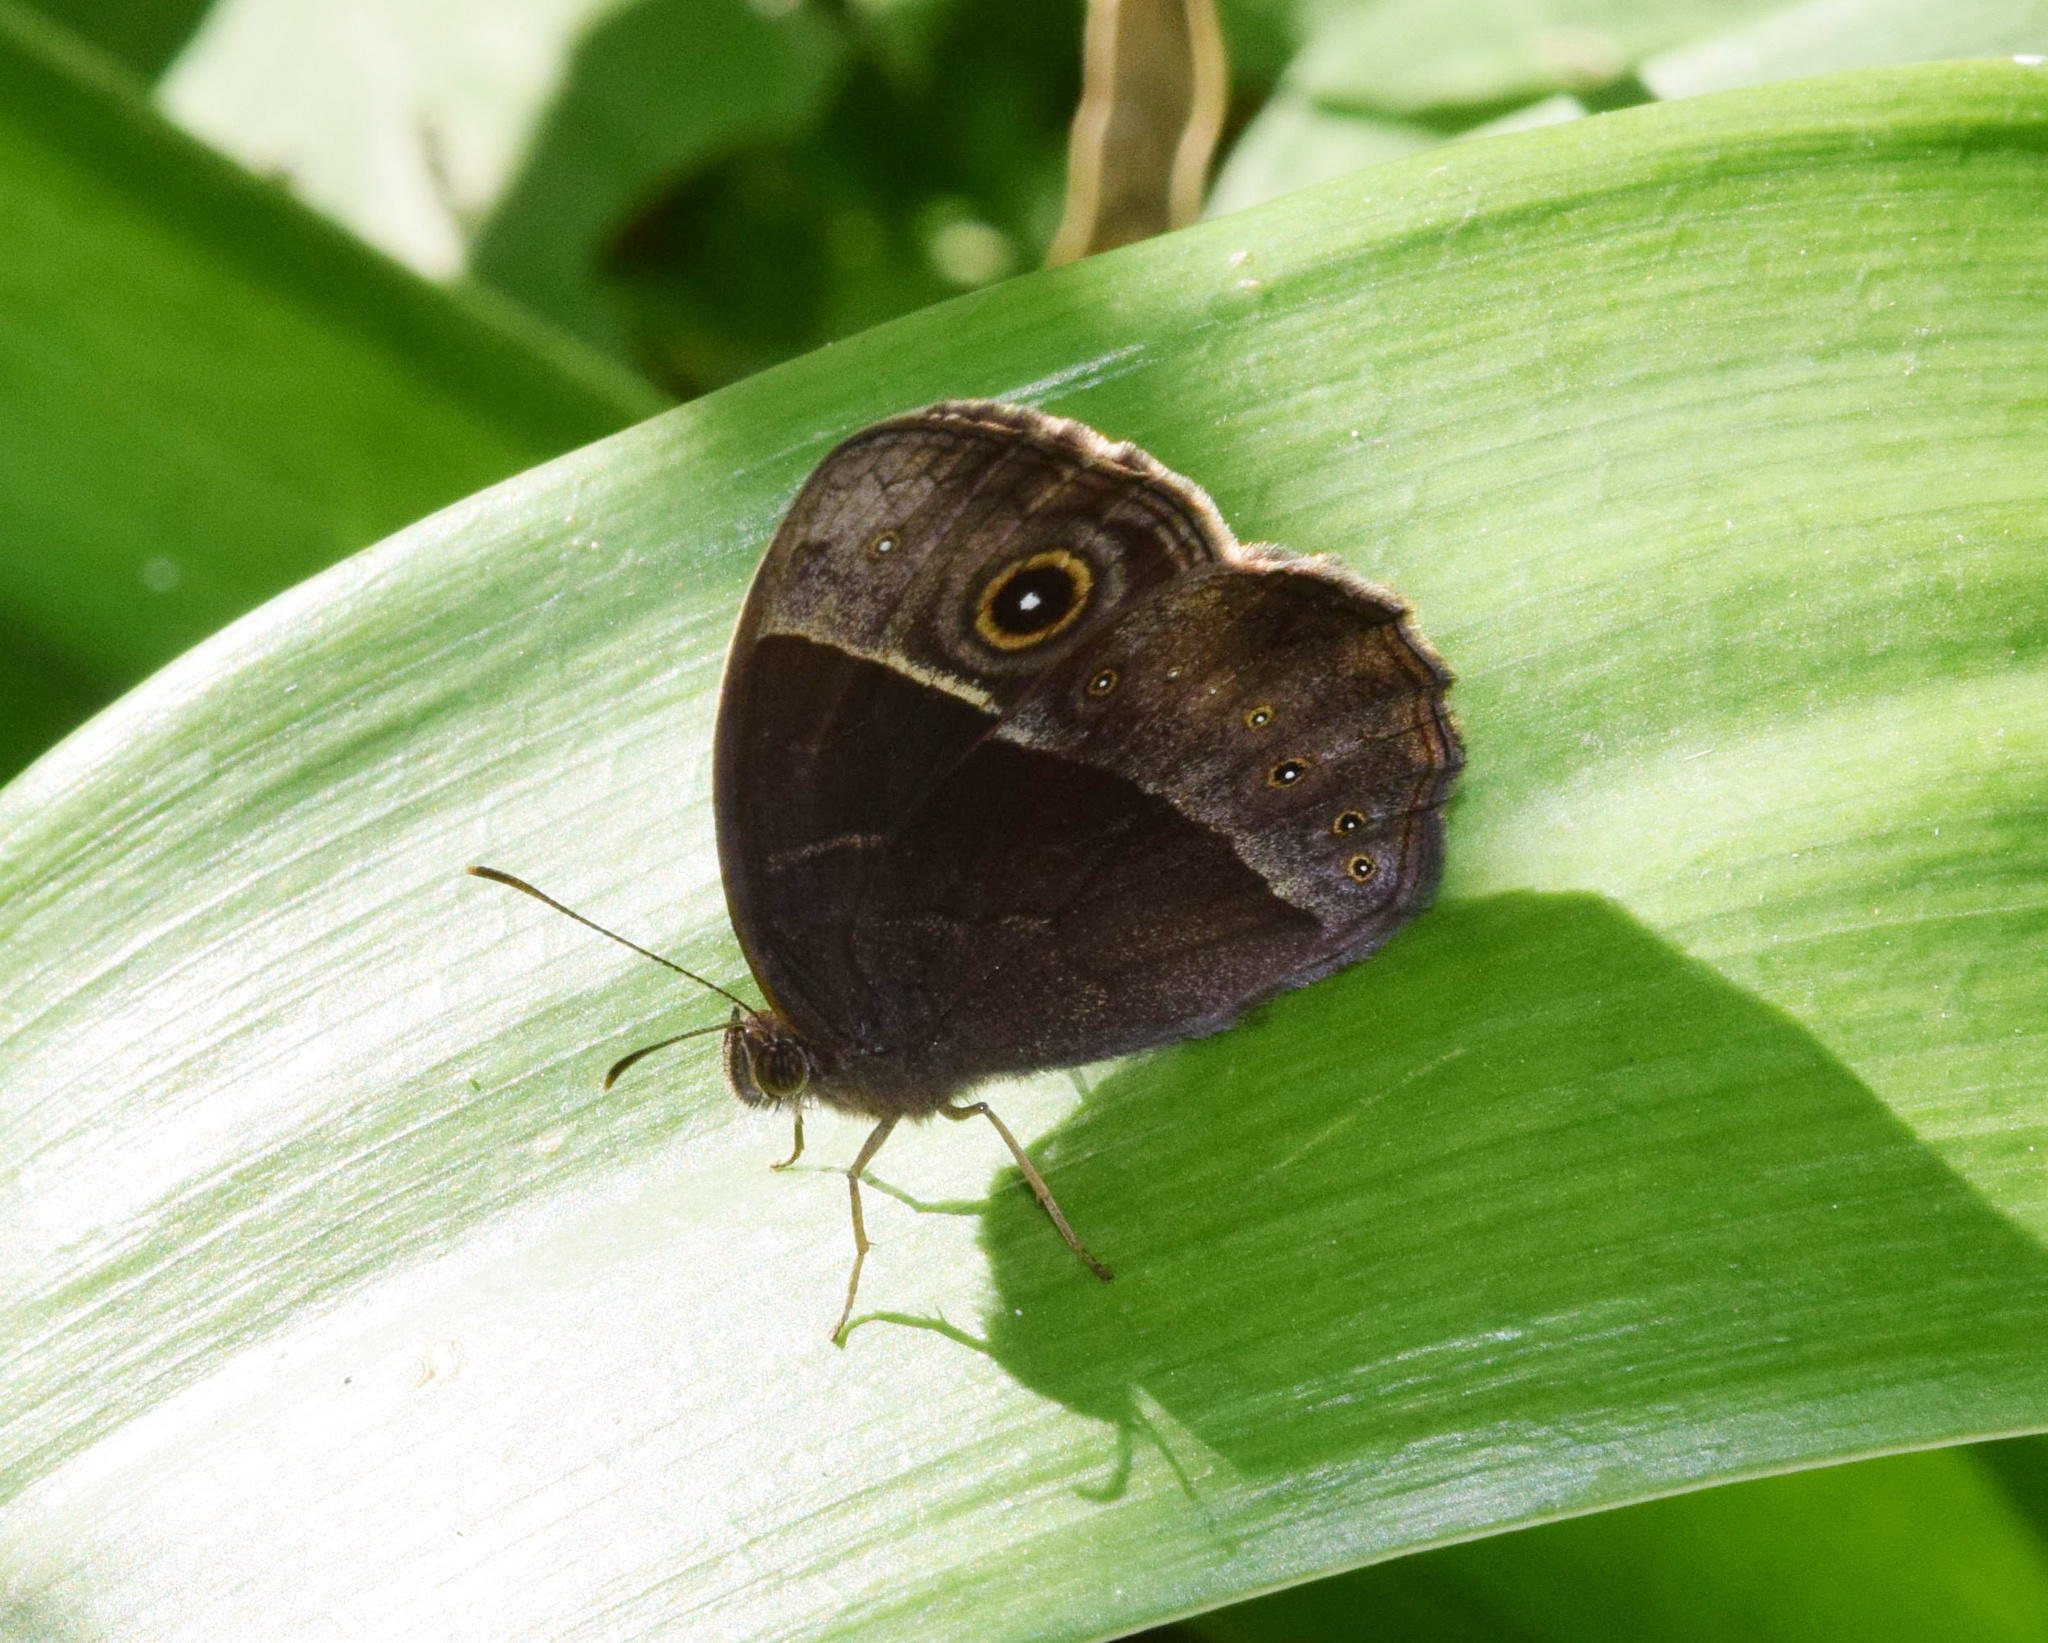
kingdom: Animalia
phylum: Arthropoda
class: Insecta
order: Lepidoptera
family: Nymphalidae
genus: Mycalesis
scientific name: Mycalesis rhacotis
